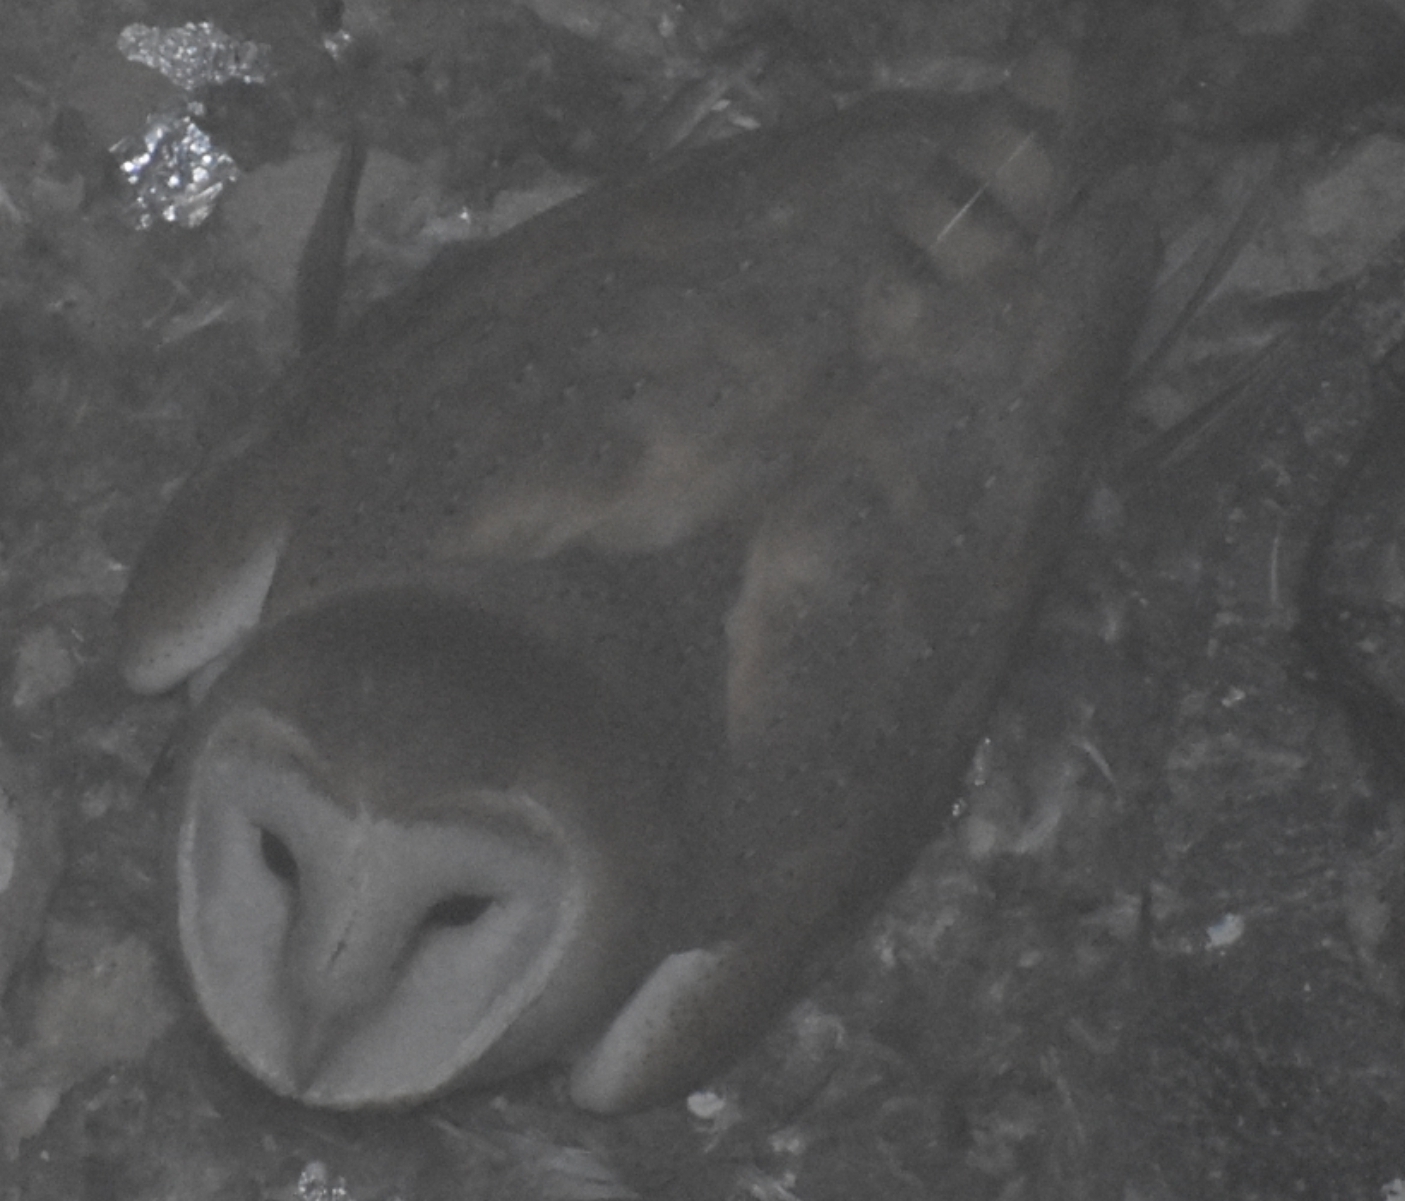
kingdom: Animalia
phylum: Chordata
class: Aves
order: Strigiformes
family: Tytonidae
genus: Tyto
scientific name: Tyto alba
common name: Barn owl
